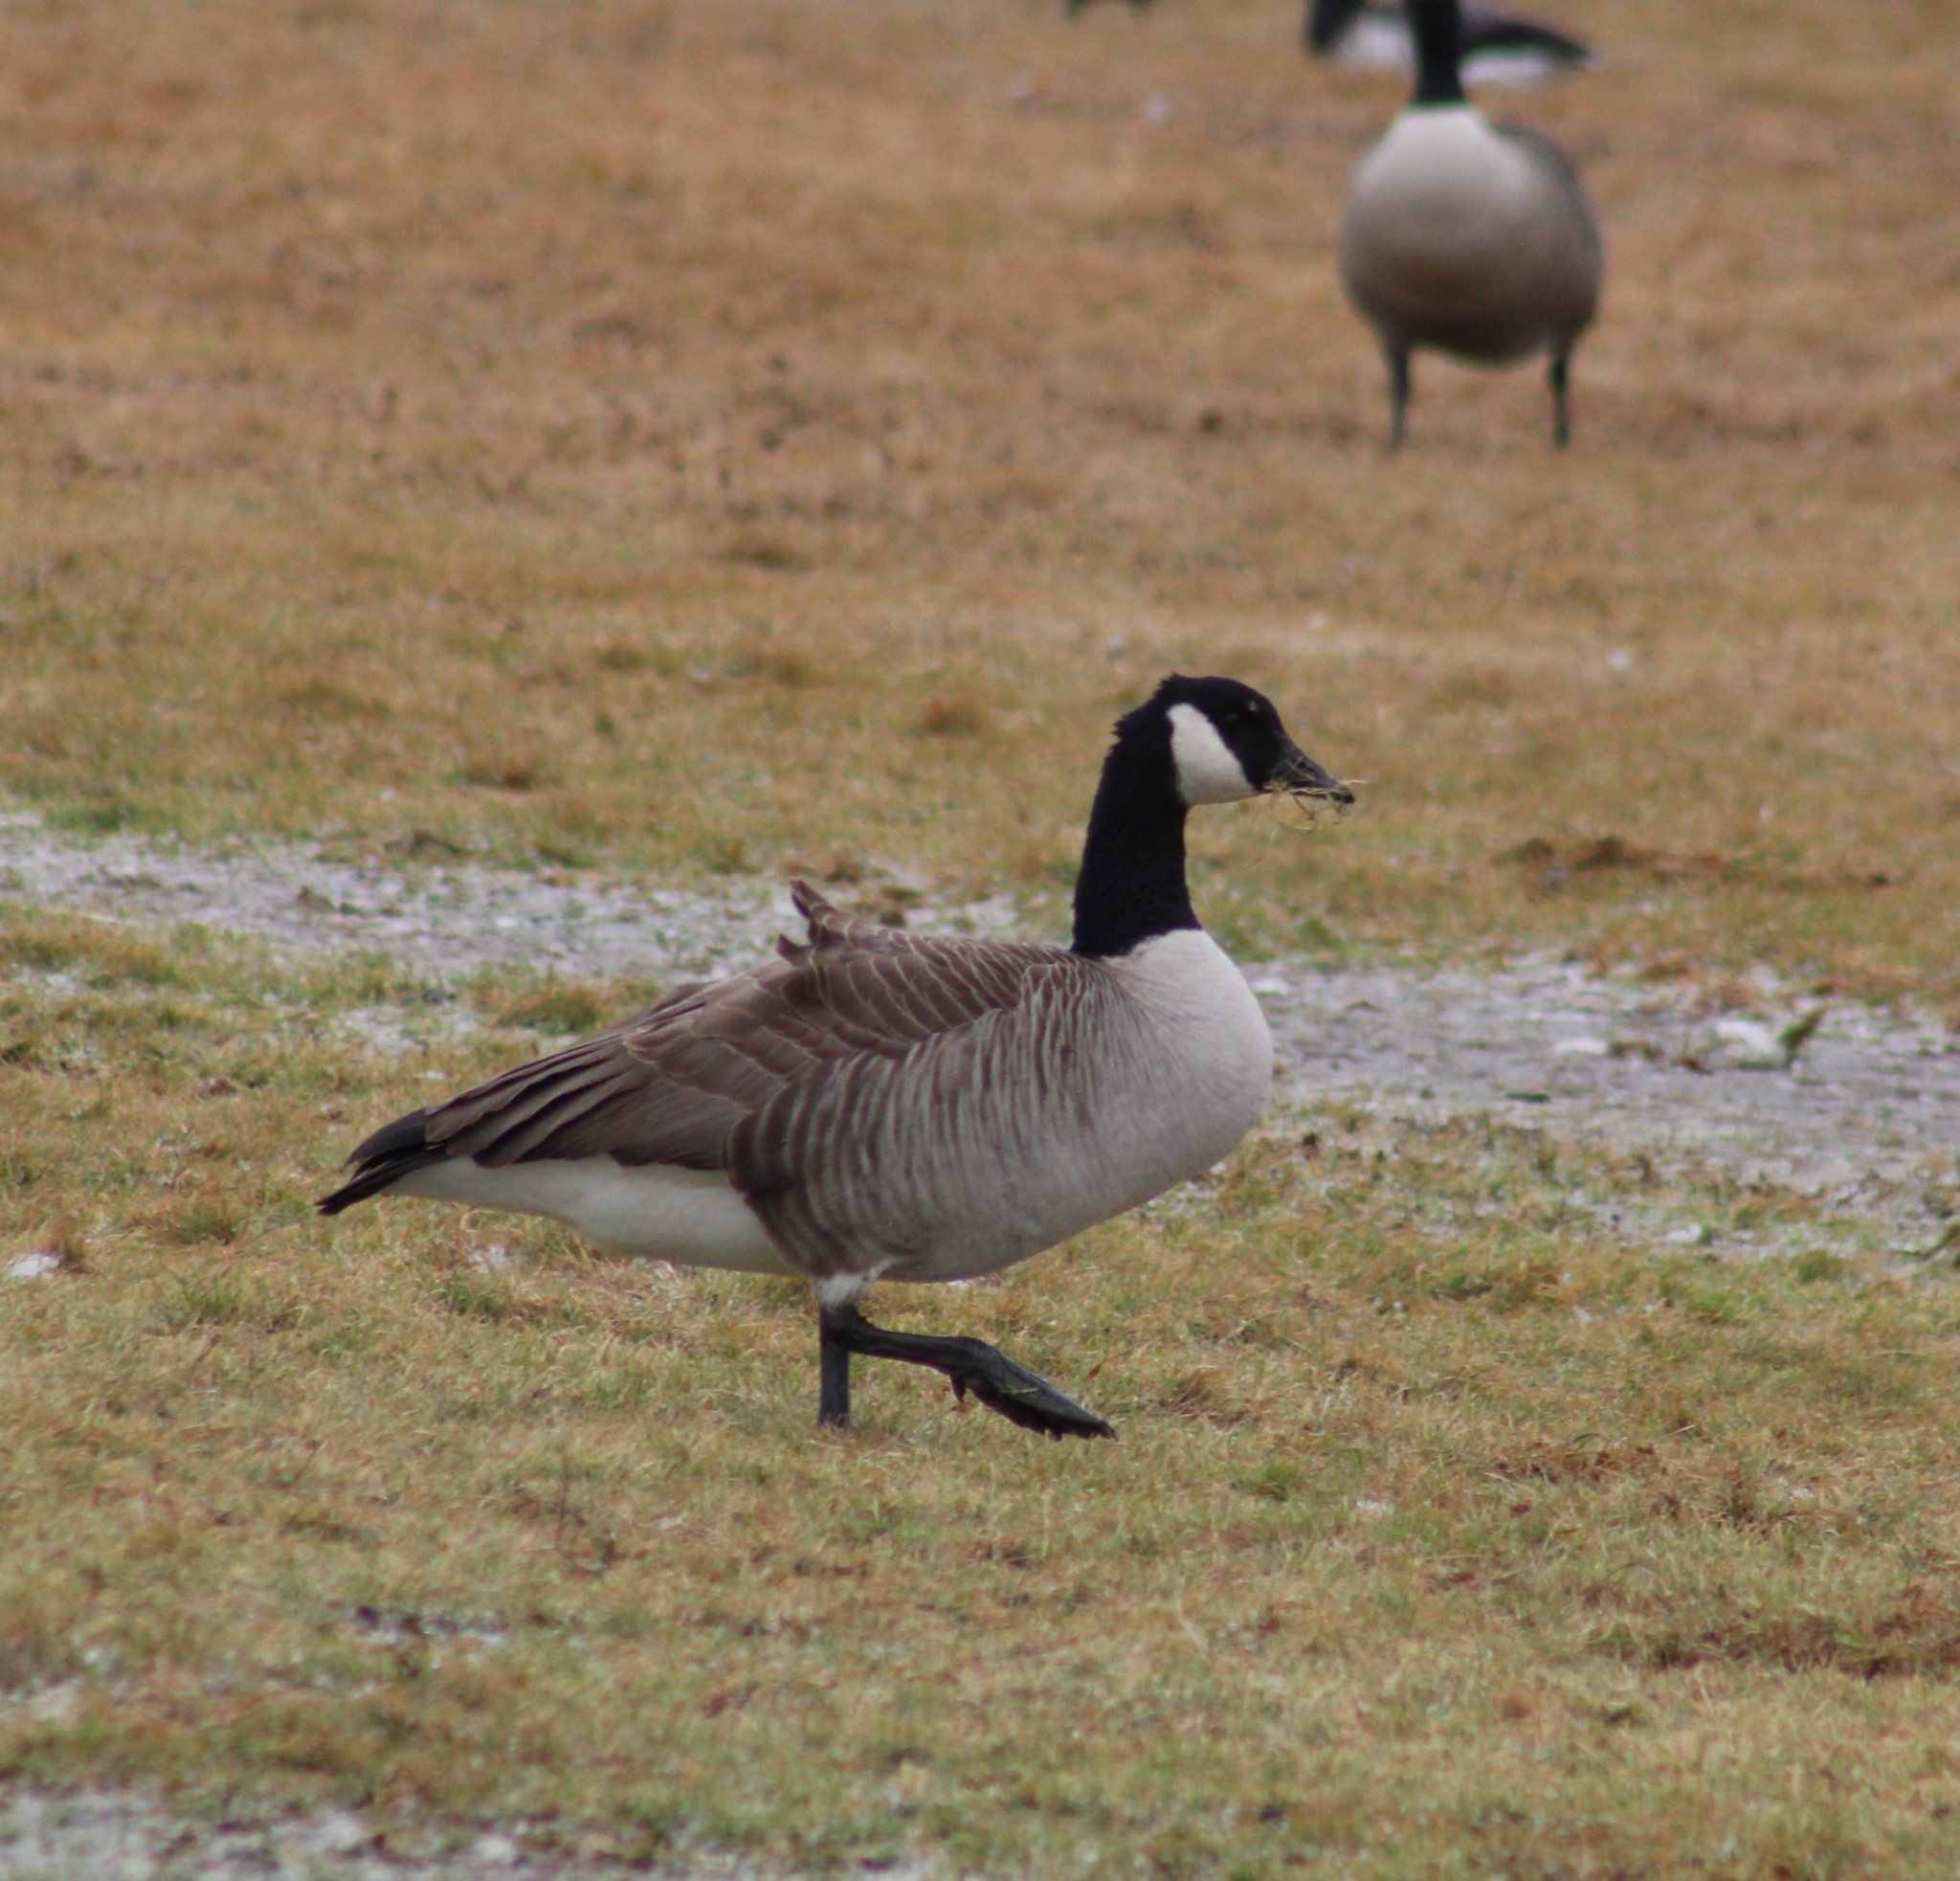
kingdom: Animalia
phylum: Chordata
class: Aves
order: Anseriformes
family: Anatidae
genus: Branta
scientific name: Branta canadensis
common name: Canada goose
